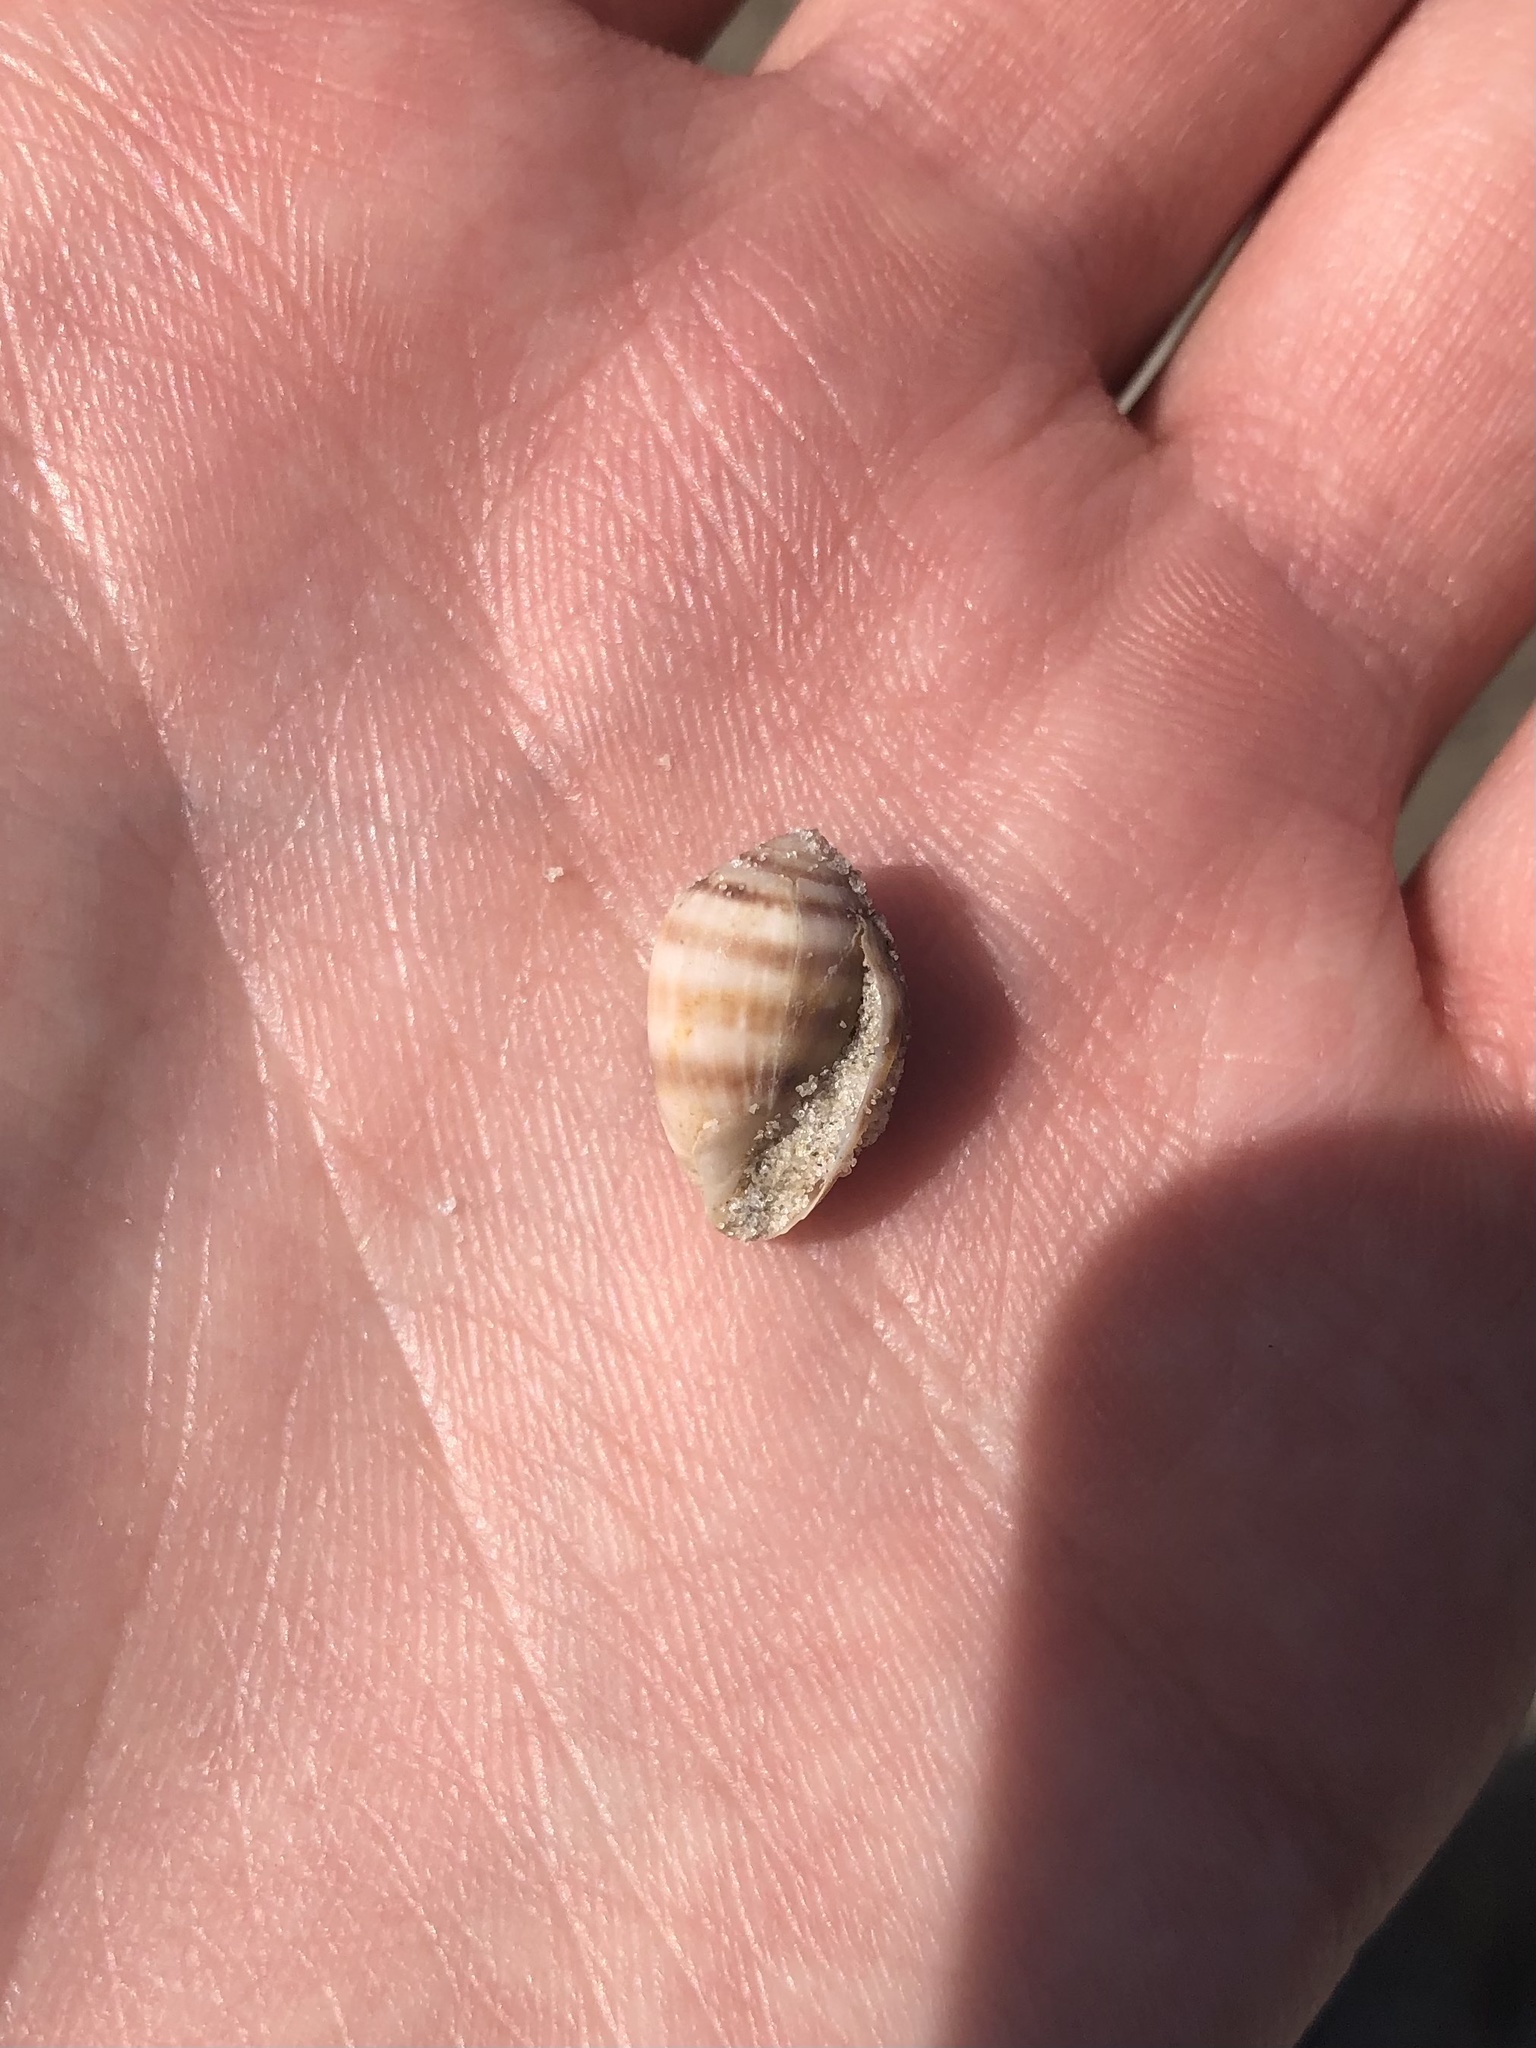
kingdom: Animalia
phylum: Mollusca
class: Gastropoda
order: Ellobiida
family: Ellobiidae
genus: Melampus
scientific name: Melampus coffea
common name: Coffee bean snail
